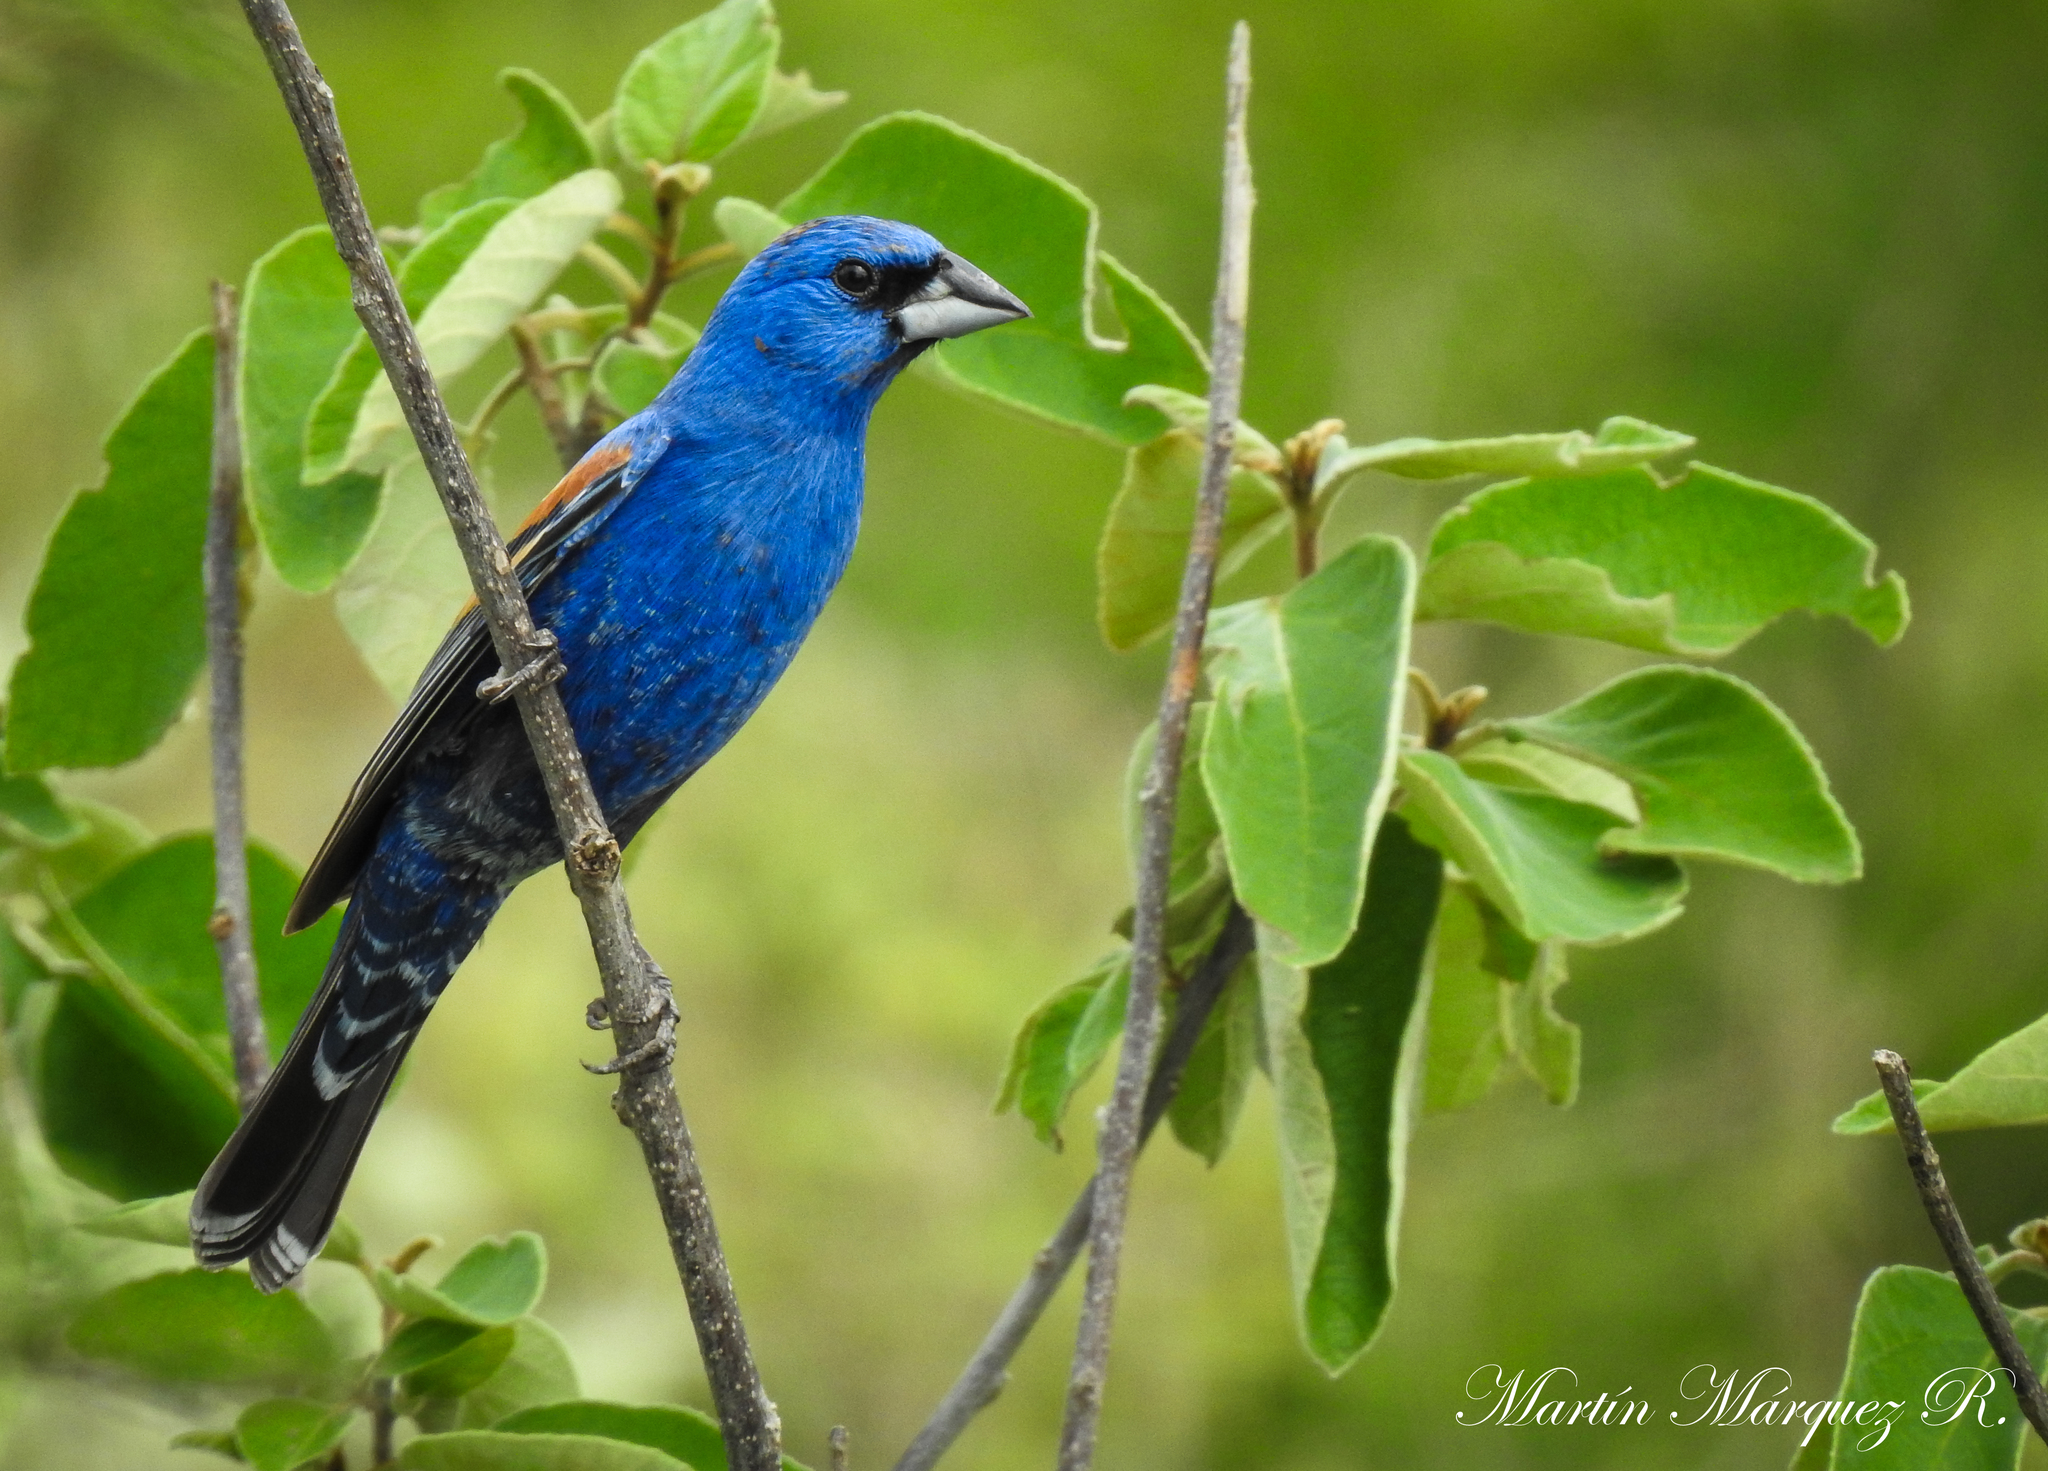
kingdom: Animalia
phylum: Chordata
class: Aves
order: Passeriformes
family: Cardinalidae
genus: Passerina
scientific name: Passerina caerulea
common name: Blue grosbeak
